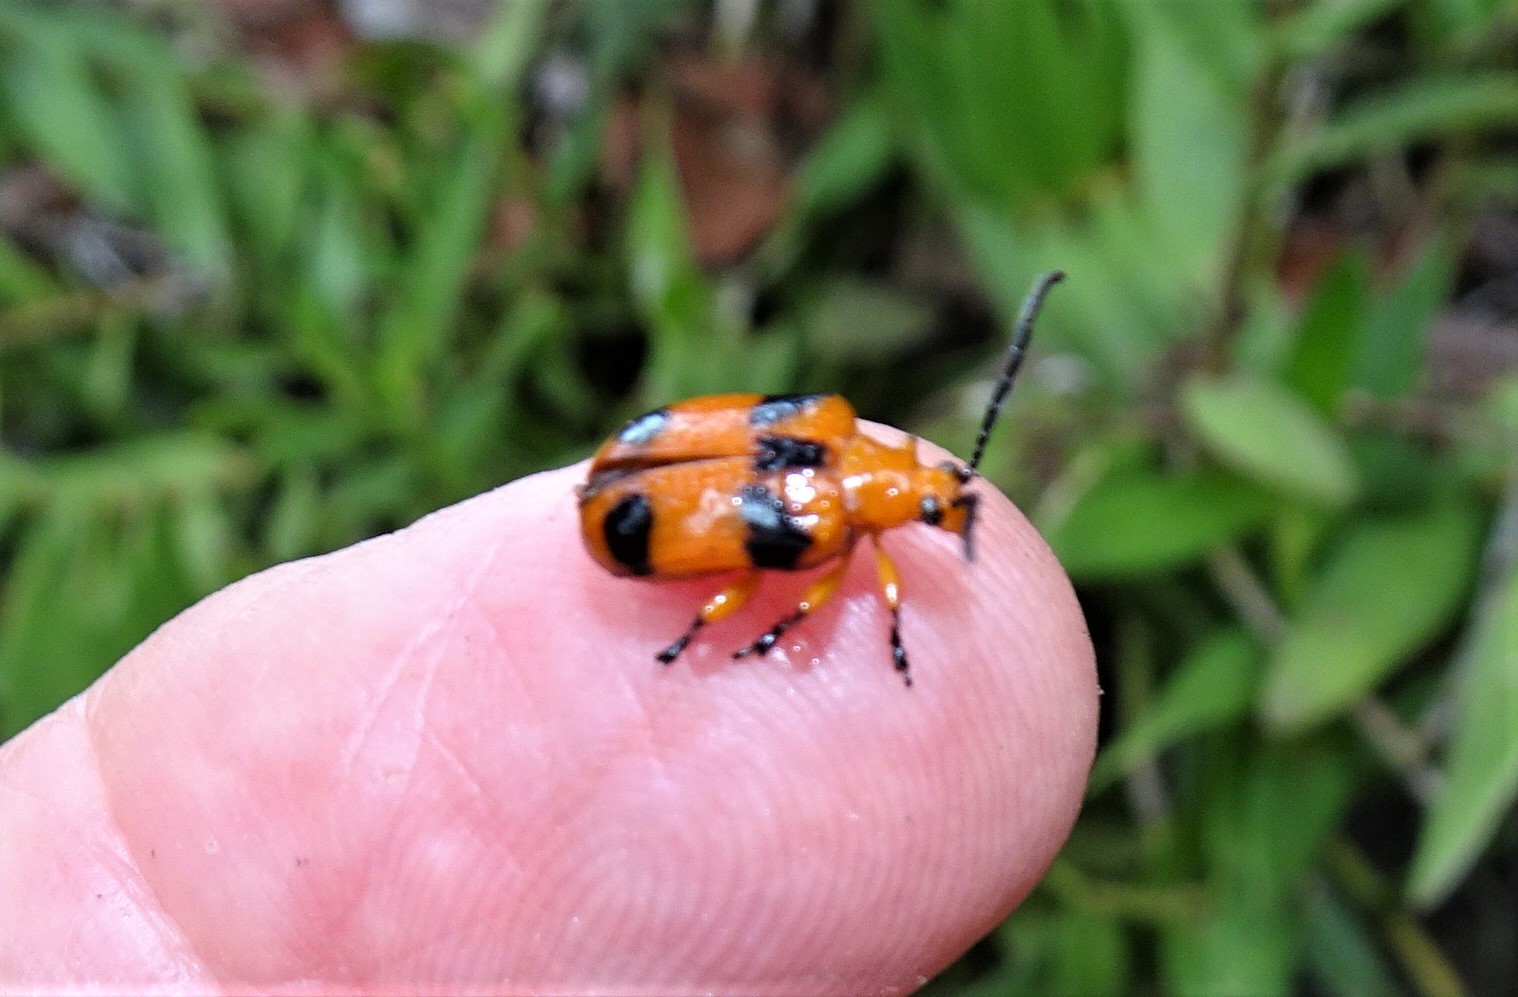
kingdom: Animalia
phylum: Arthropoda
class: Insecta
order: Coleoptera
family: Chrysomelidae
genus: Stethopachys
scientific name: Stethopachys formosa
